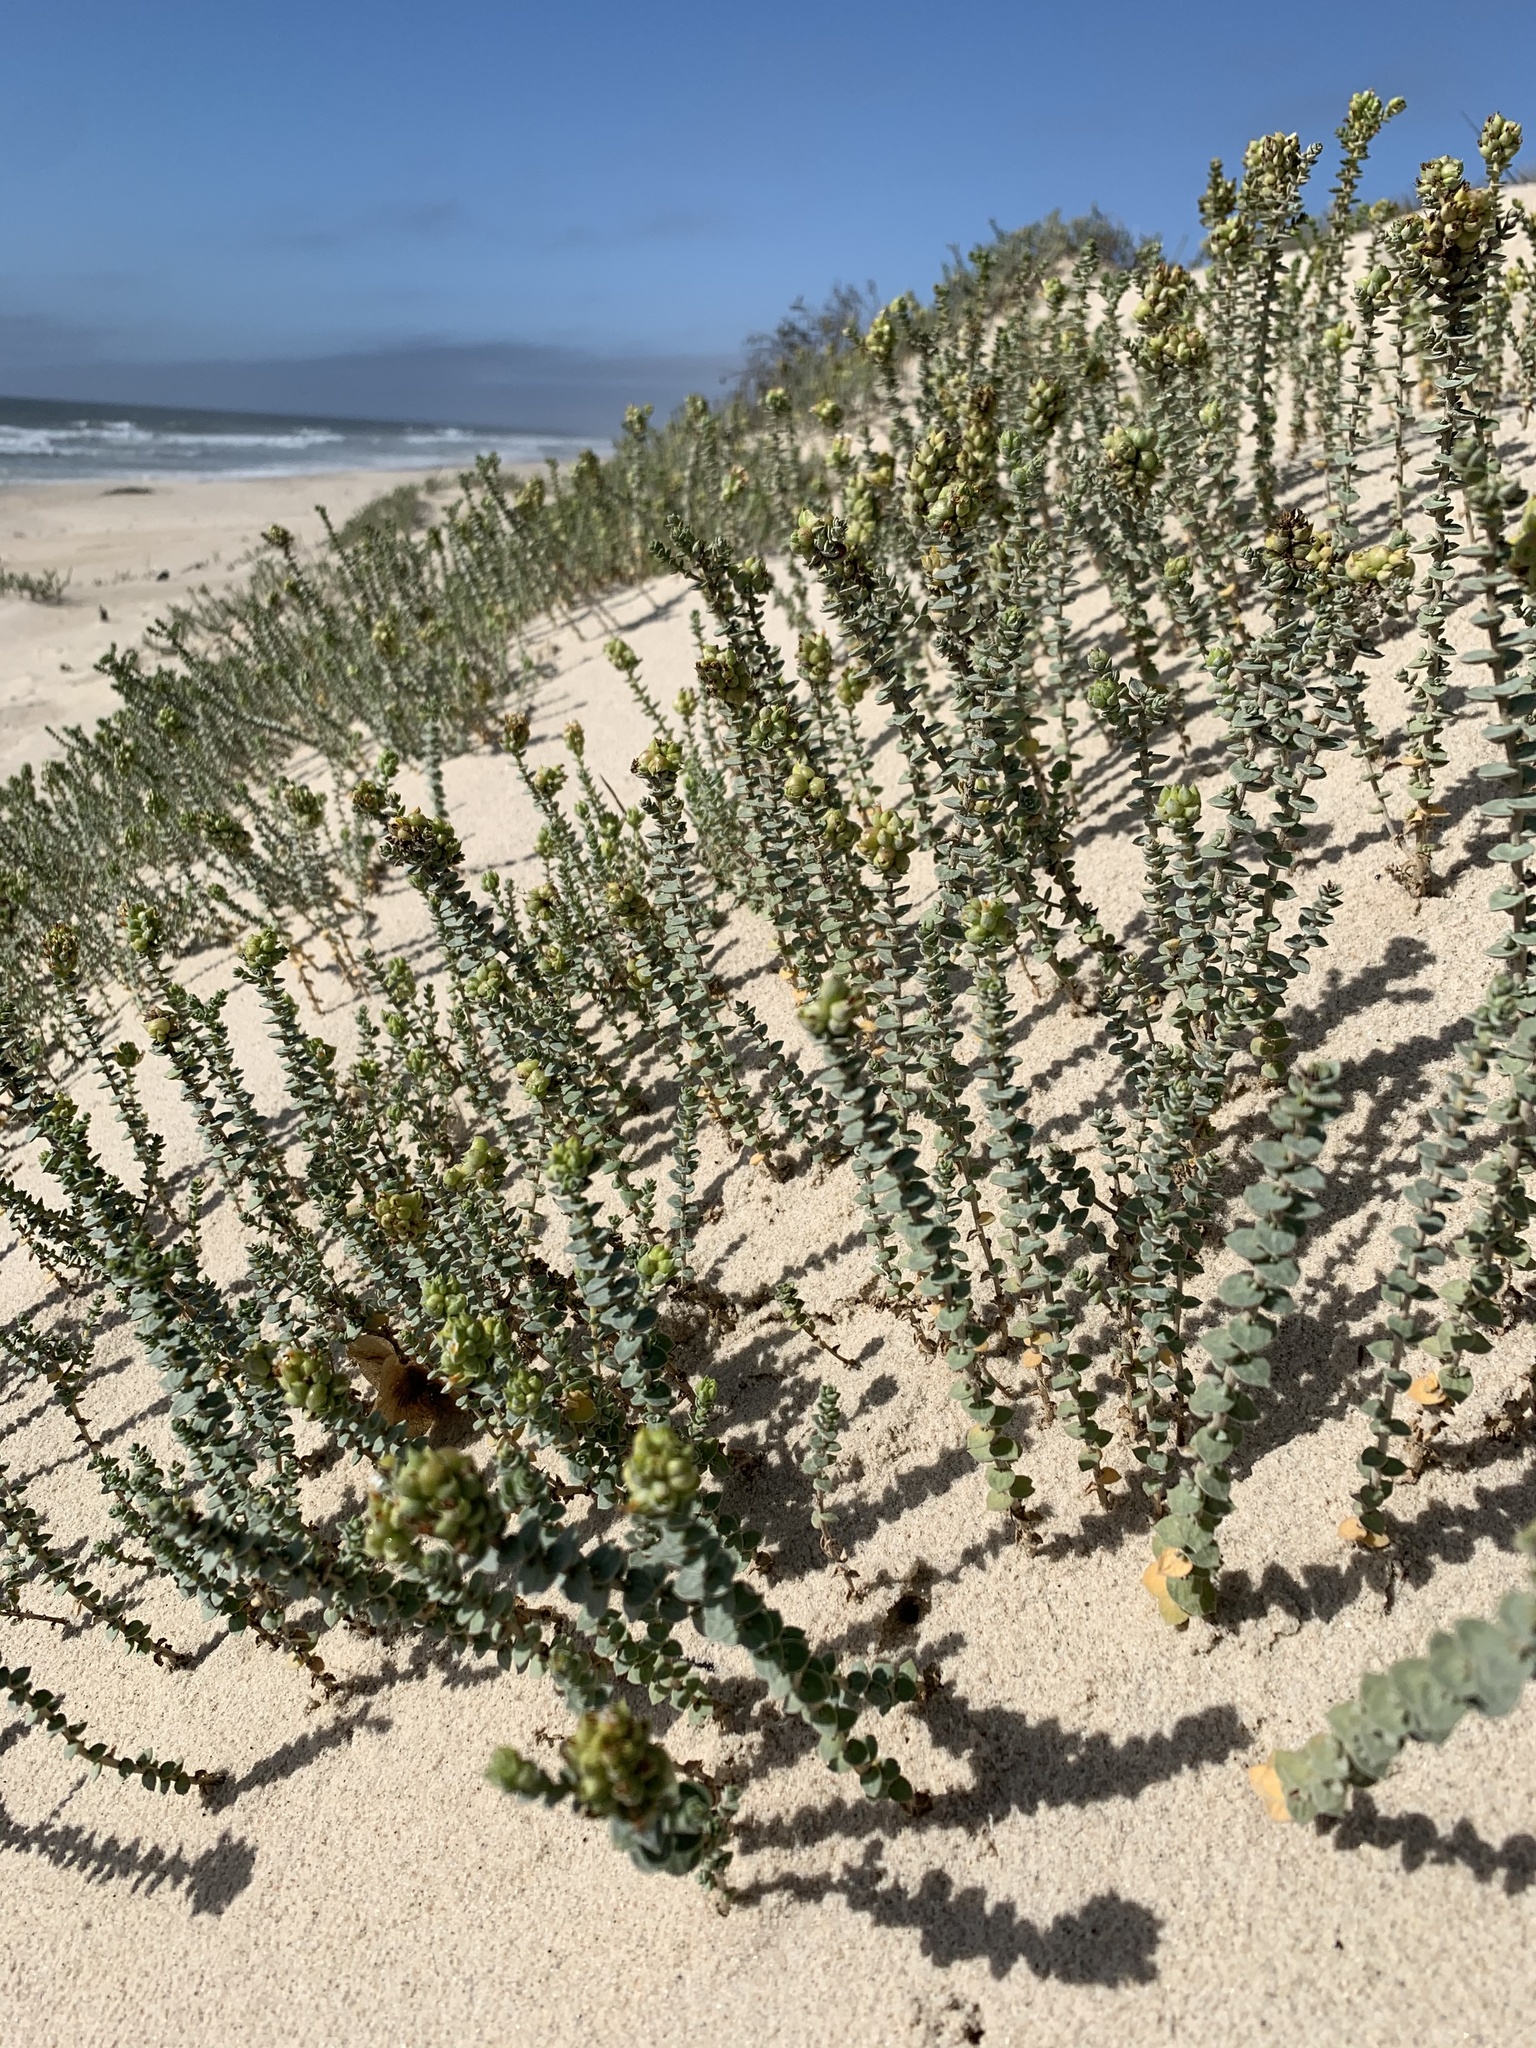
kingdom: Plantae
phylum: Tracheophyta
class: Magnoliopsida
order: Lamiales
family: Scrophulariaceae
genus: Hebenstretia
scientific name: Hebenstretia cordata
